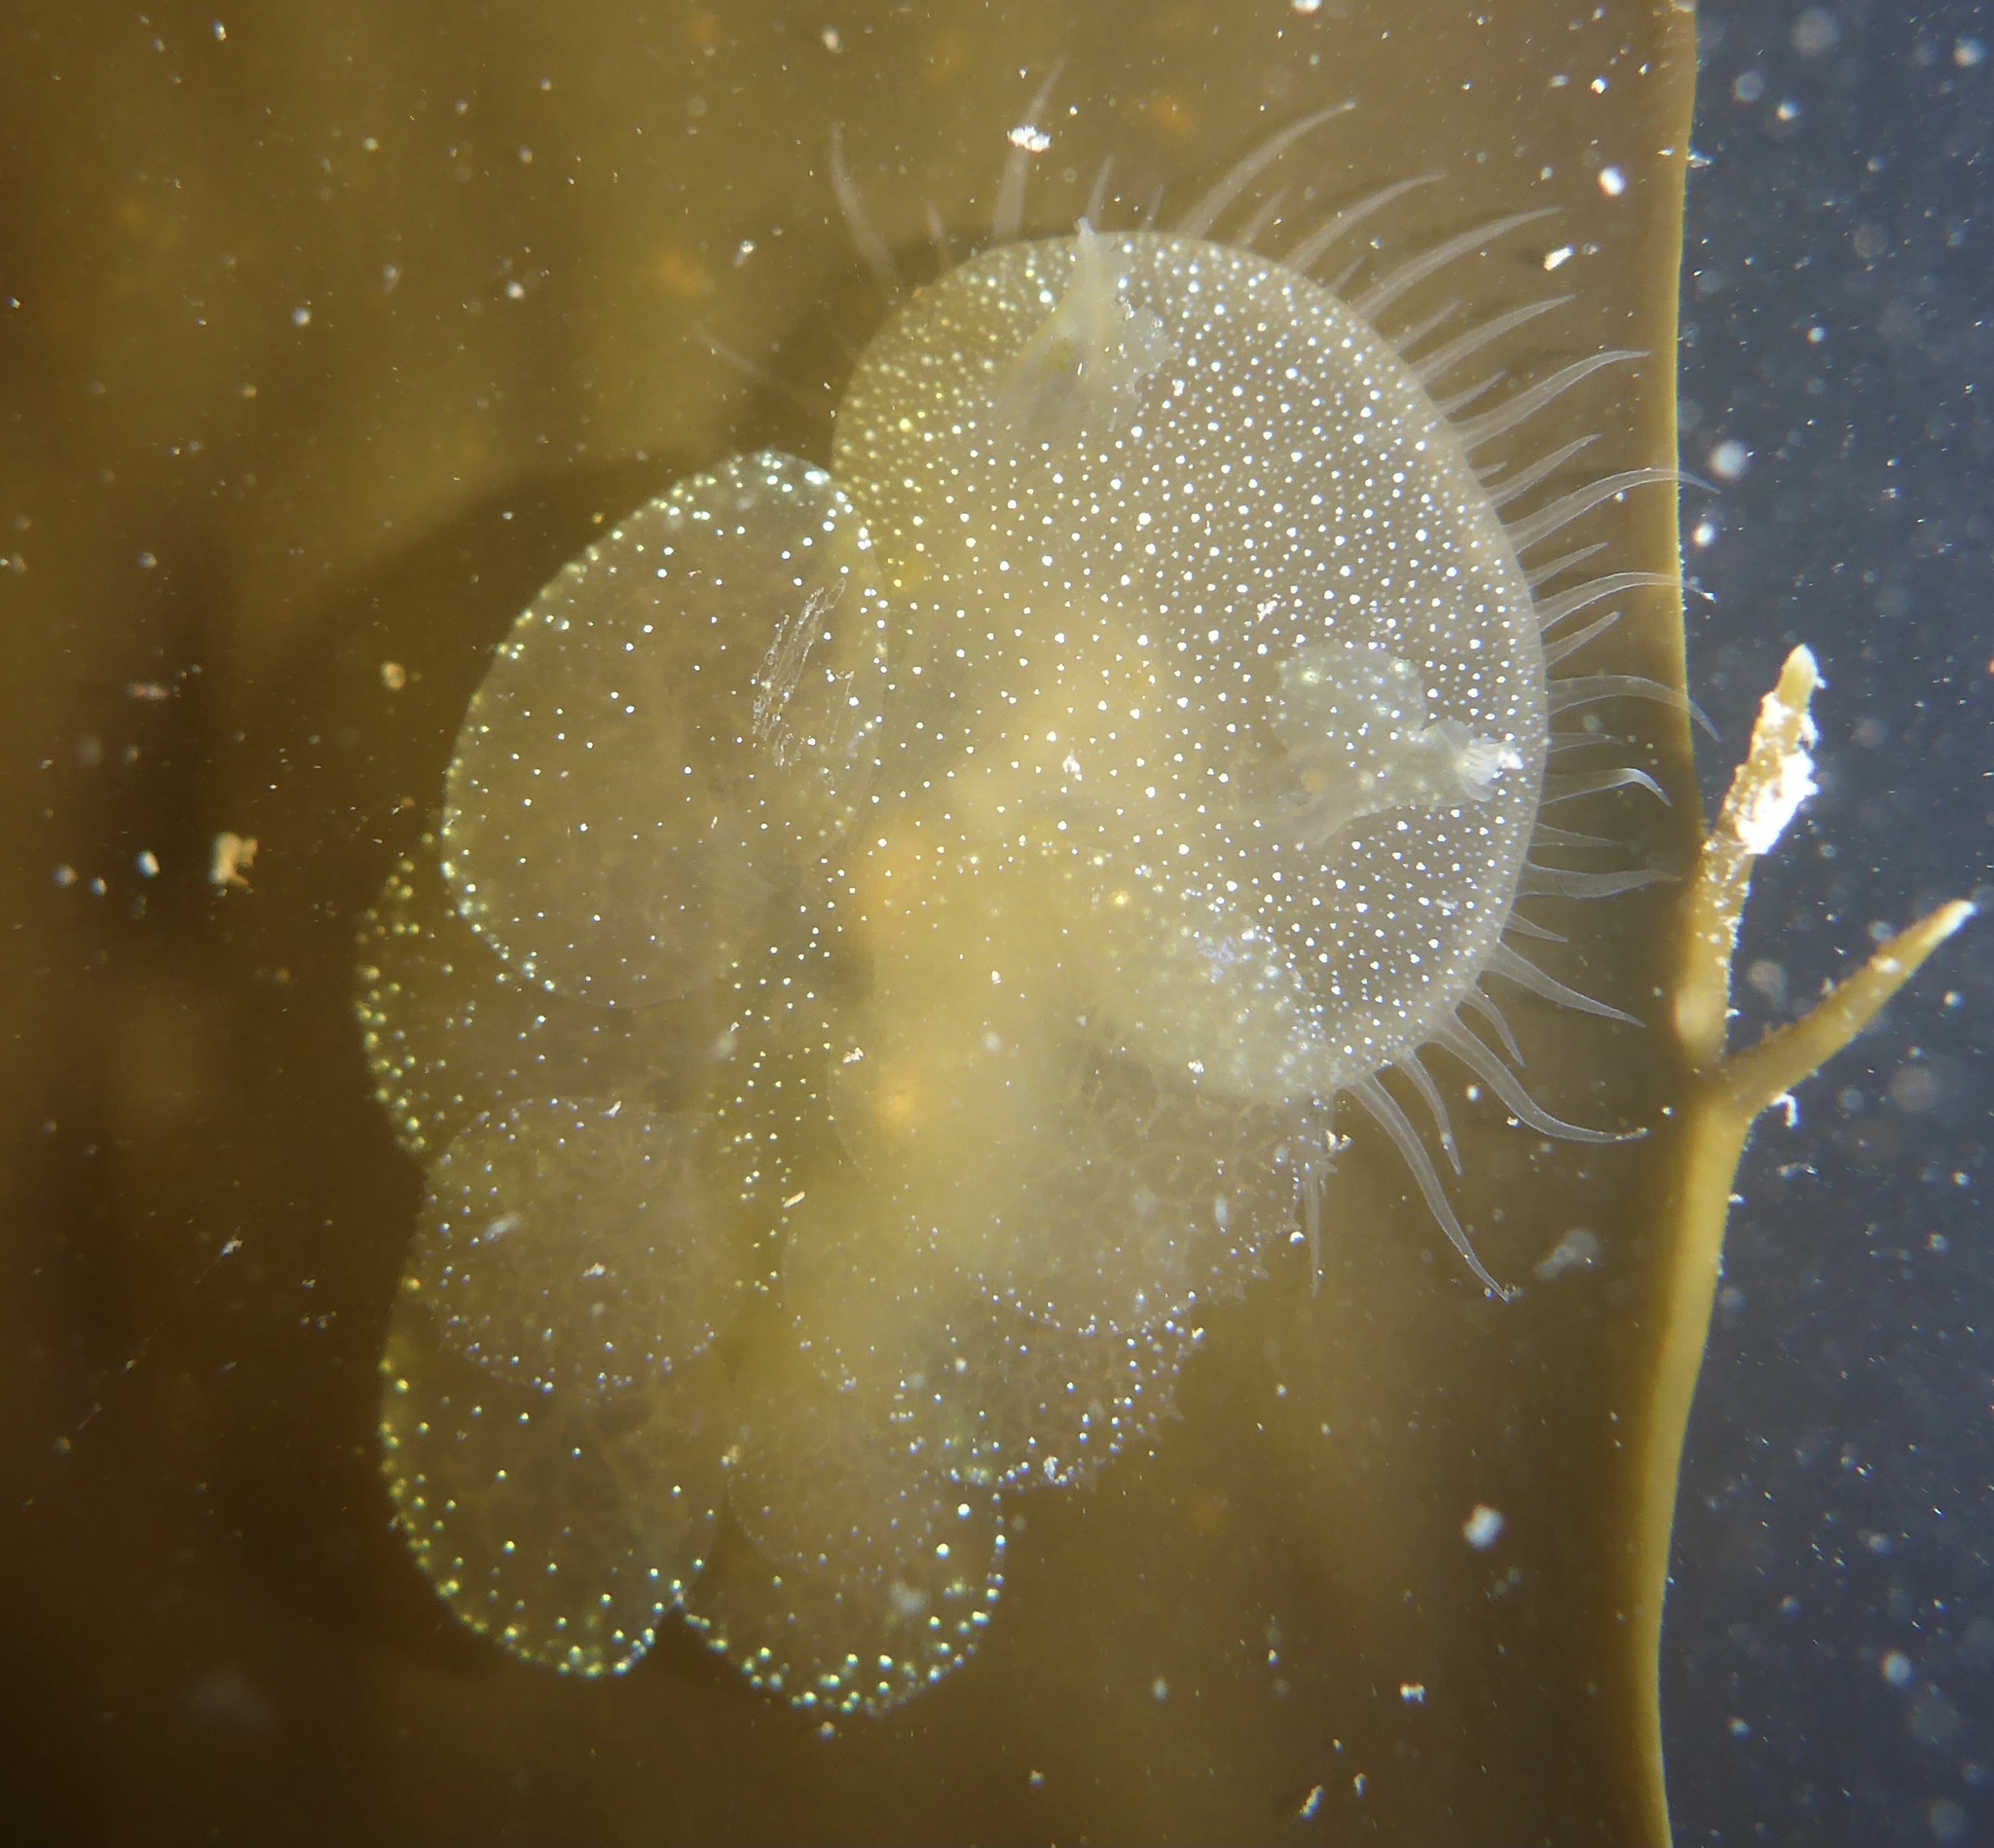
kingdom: Animalia
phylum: Mollusca
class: Gastropoda
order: Nudibranchia
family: Tethydidae
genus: Melibe
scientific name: Melibe leonina
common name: Lion nudibranch
